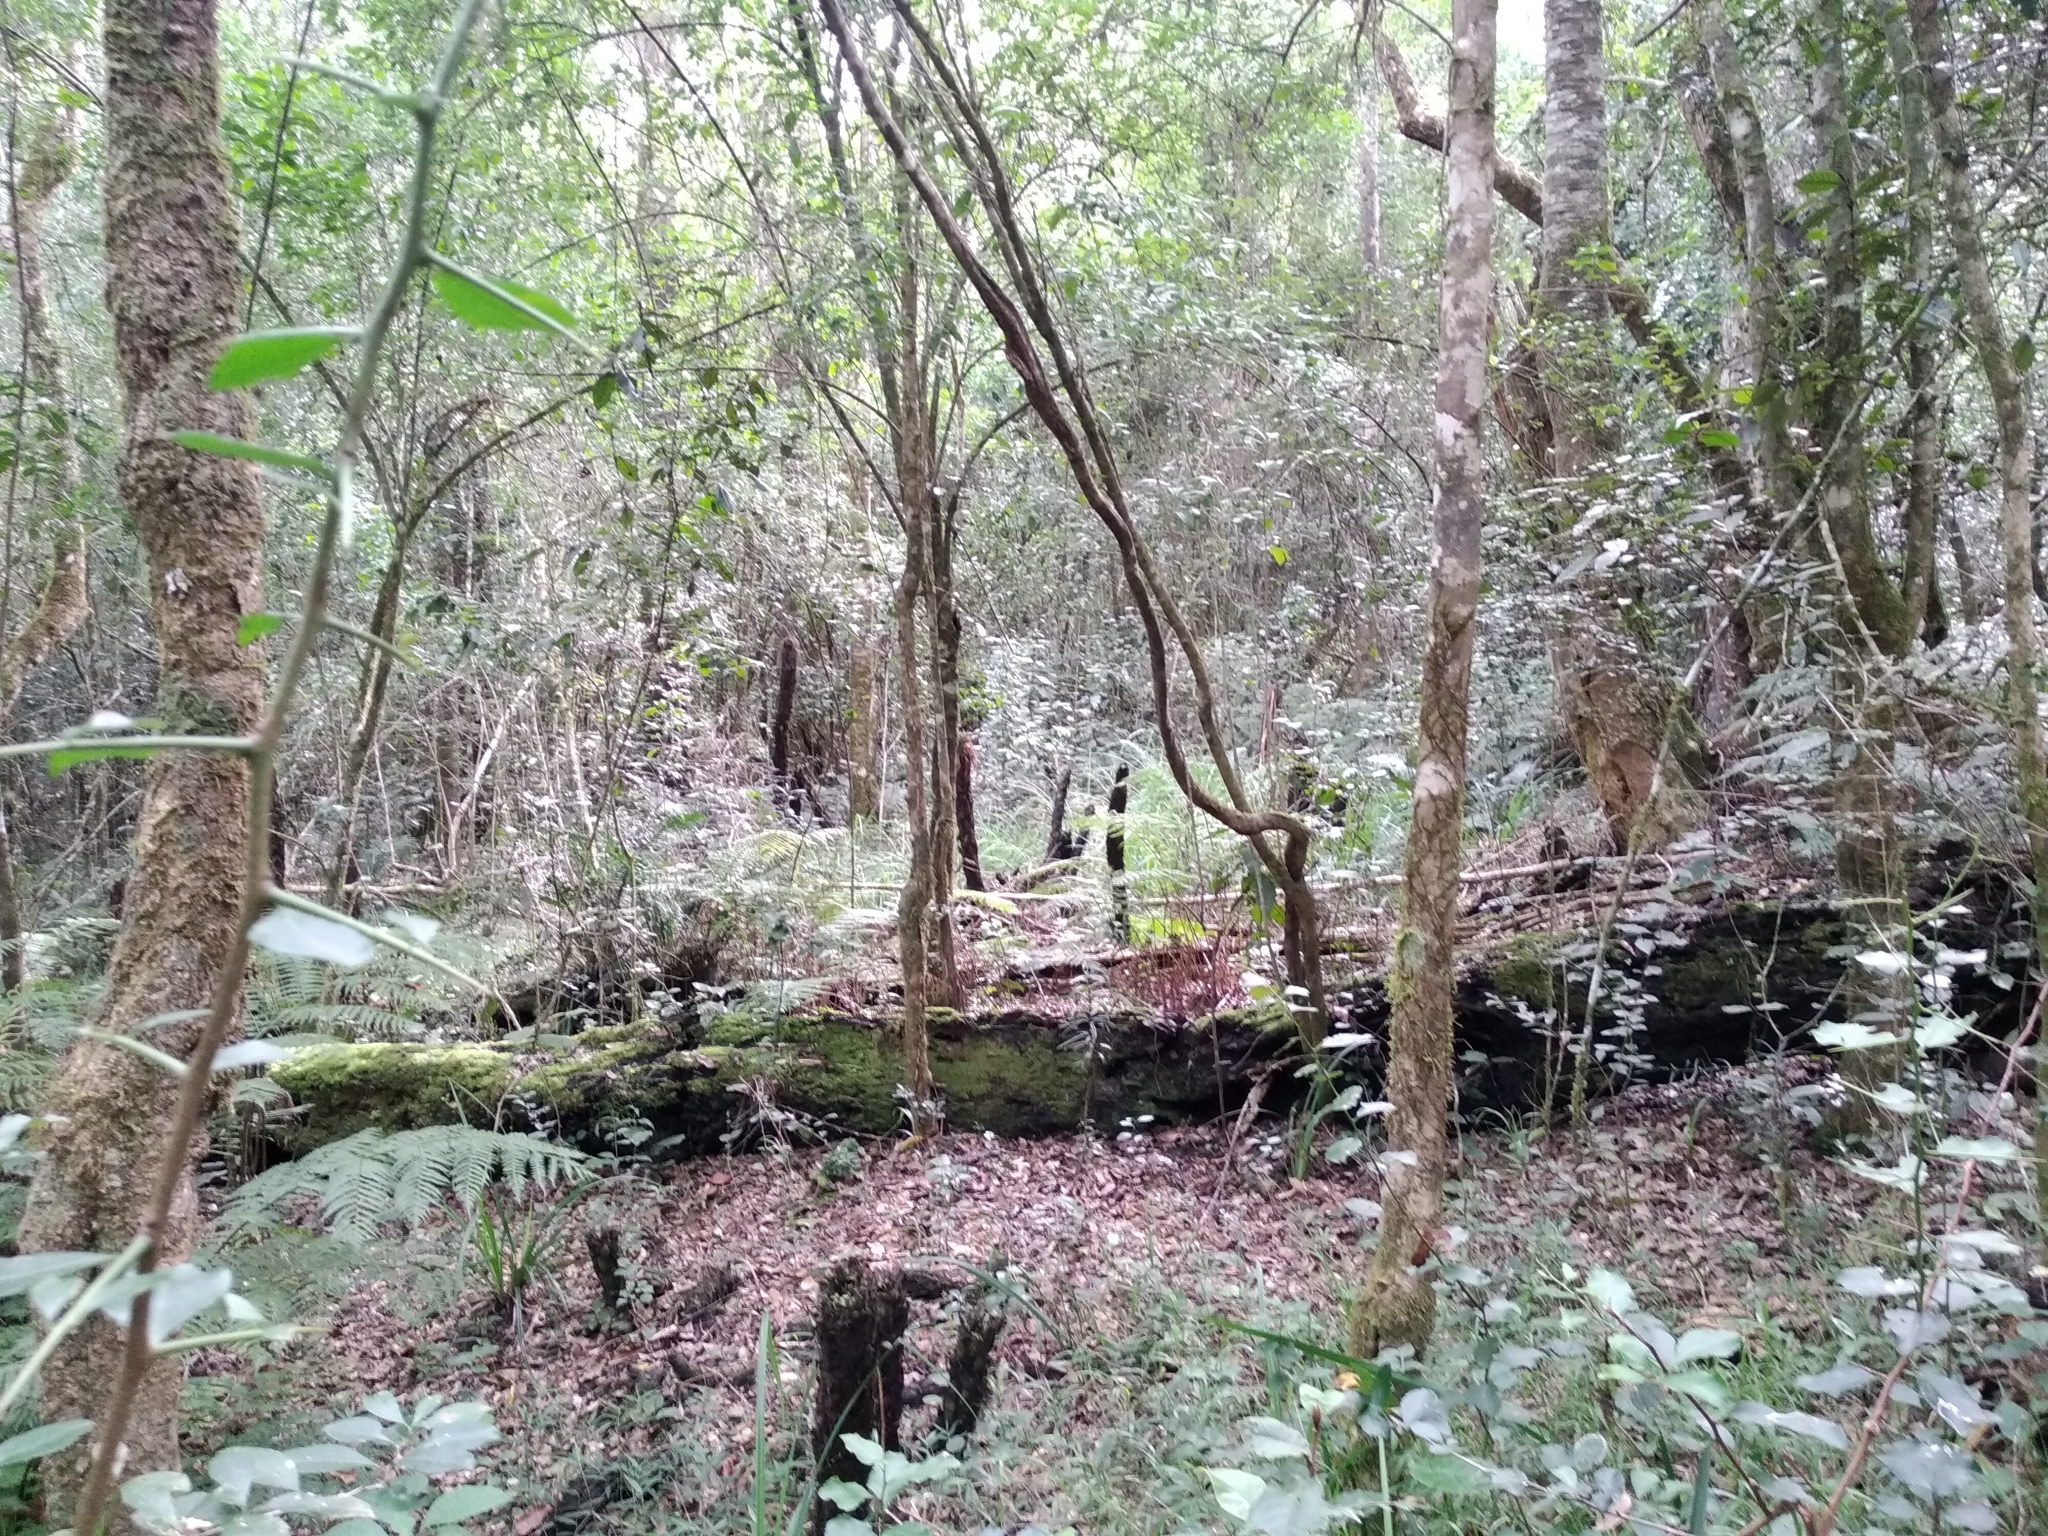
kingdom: Plantae
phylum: Tracheophyta
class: Polypodiopsida
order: Cyatheales
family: Cyatheaceae
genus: Gymnosphaera
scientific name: Gymnosphaera capensis
